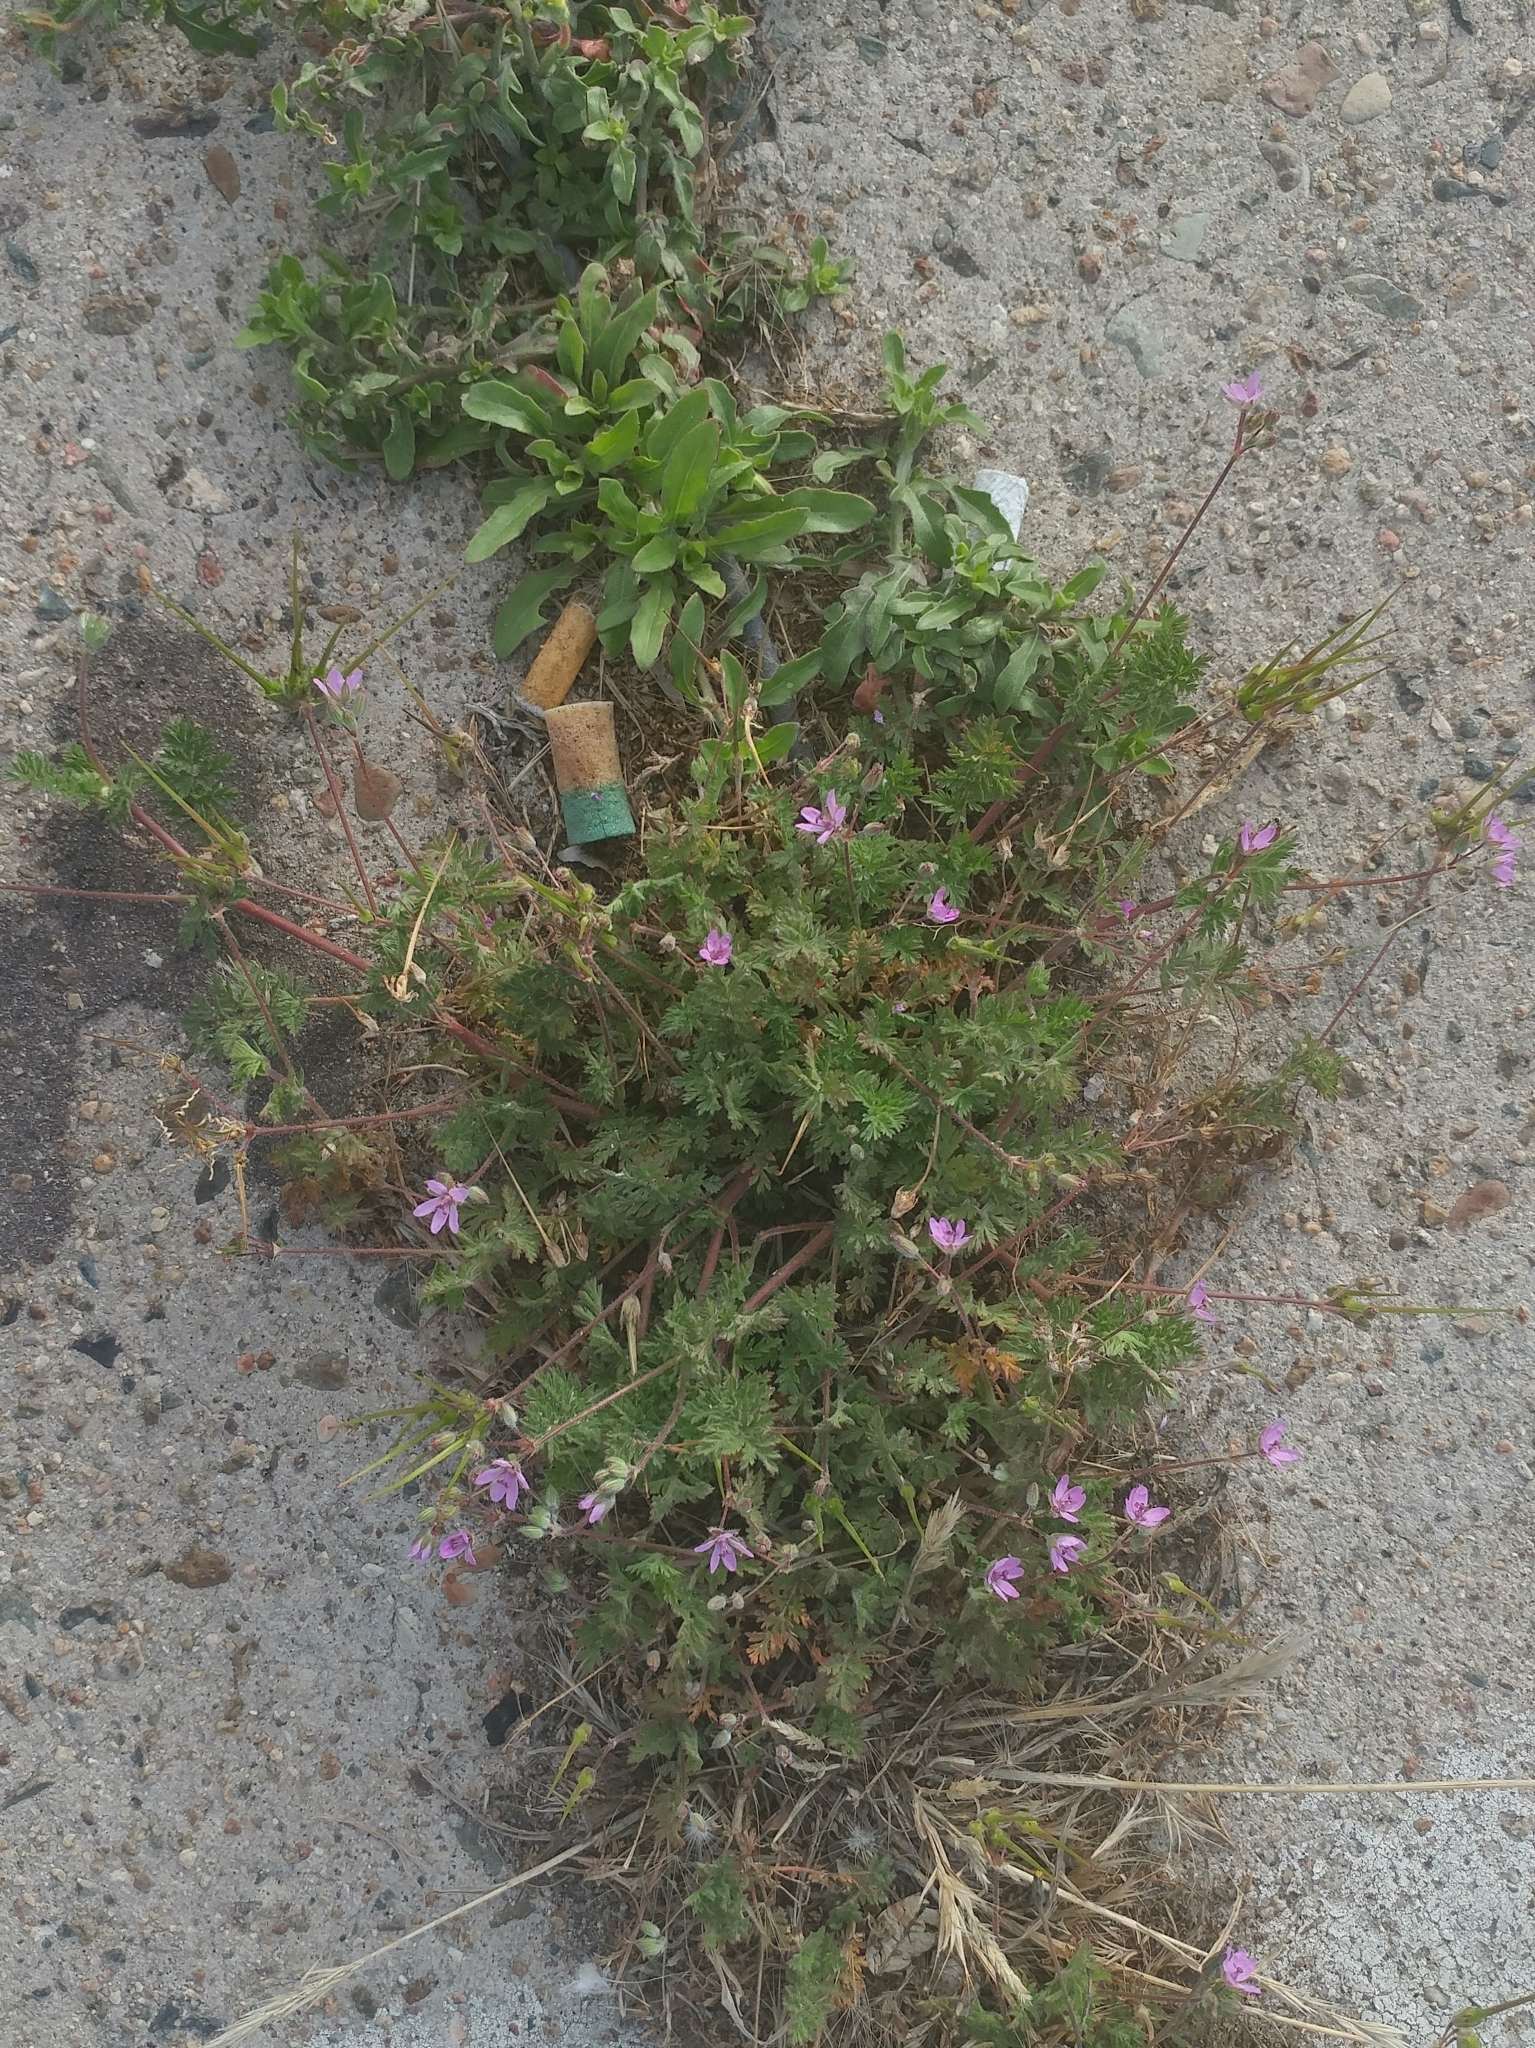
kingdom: Plantae
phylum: Tracheophyta
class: Magnoliopsida
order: Geraniales
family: Geraniaceae
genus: Erodium
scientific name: Erodium cicutarium
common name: Common stork's-bill
